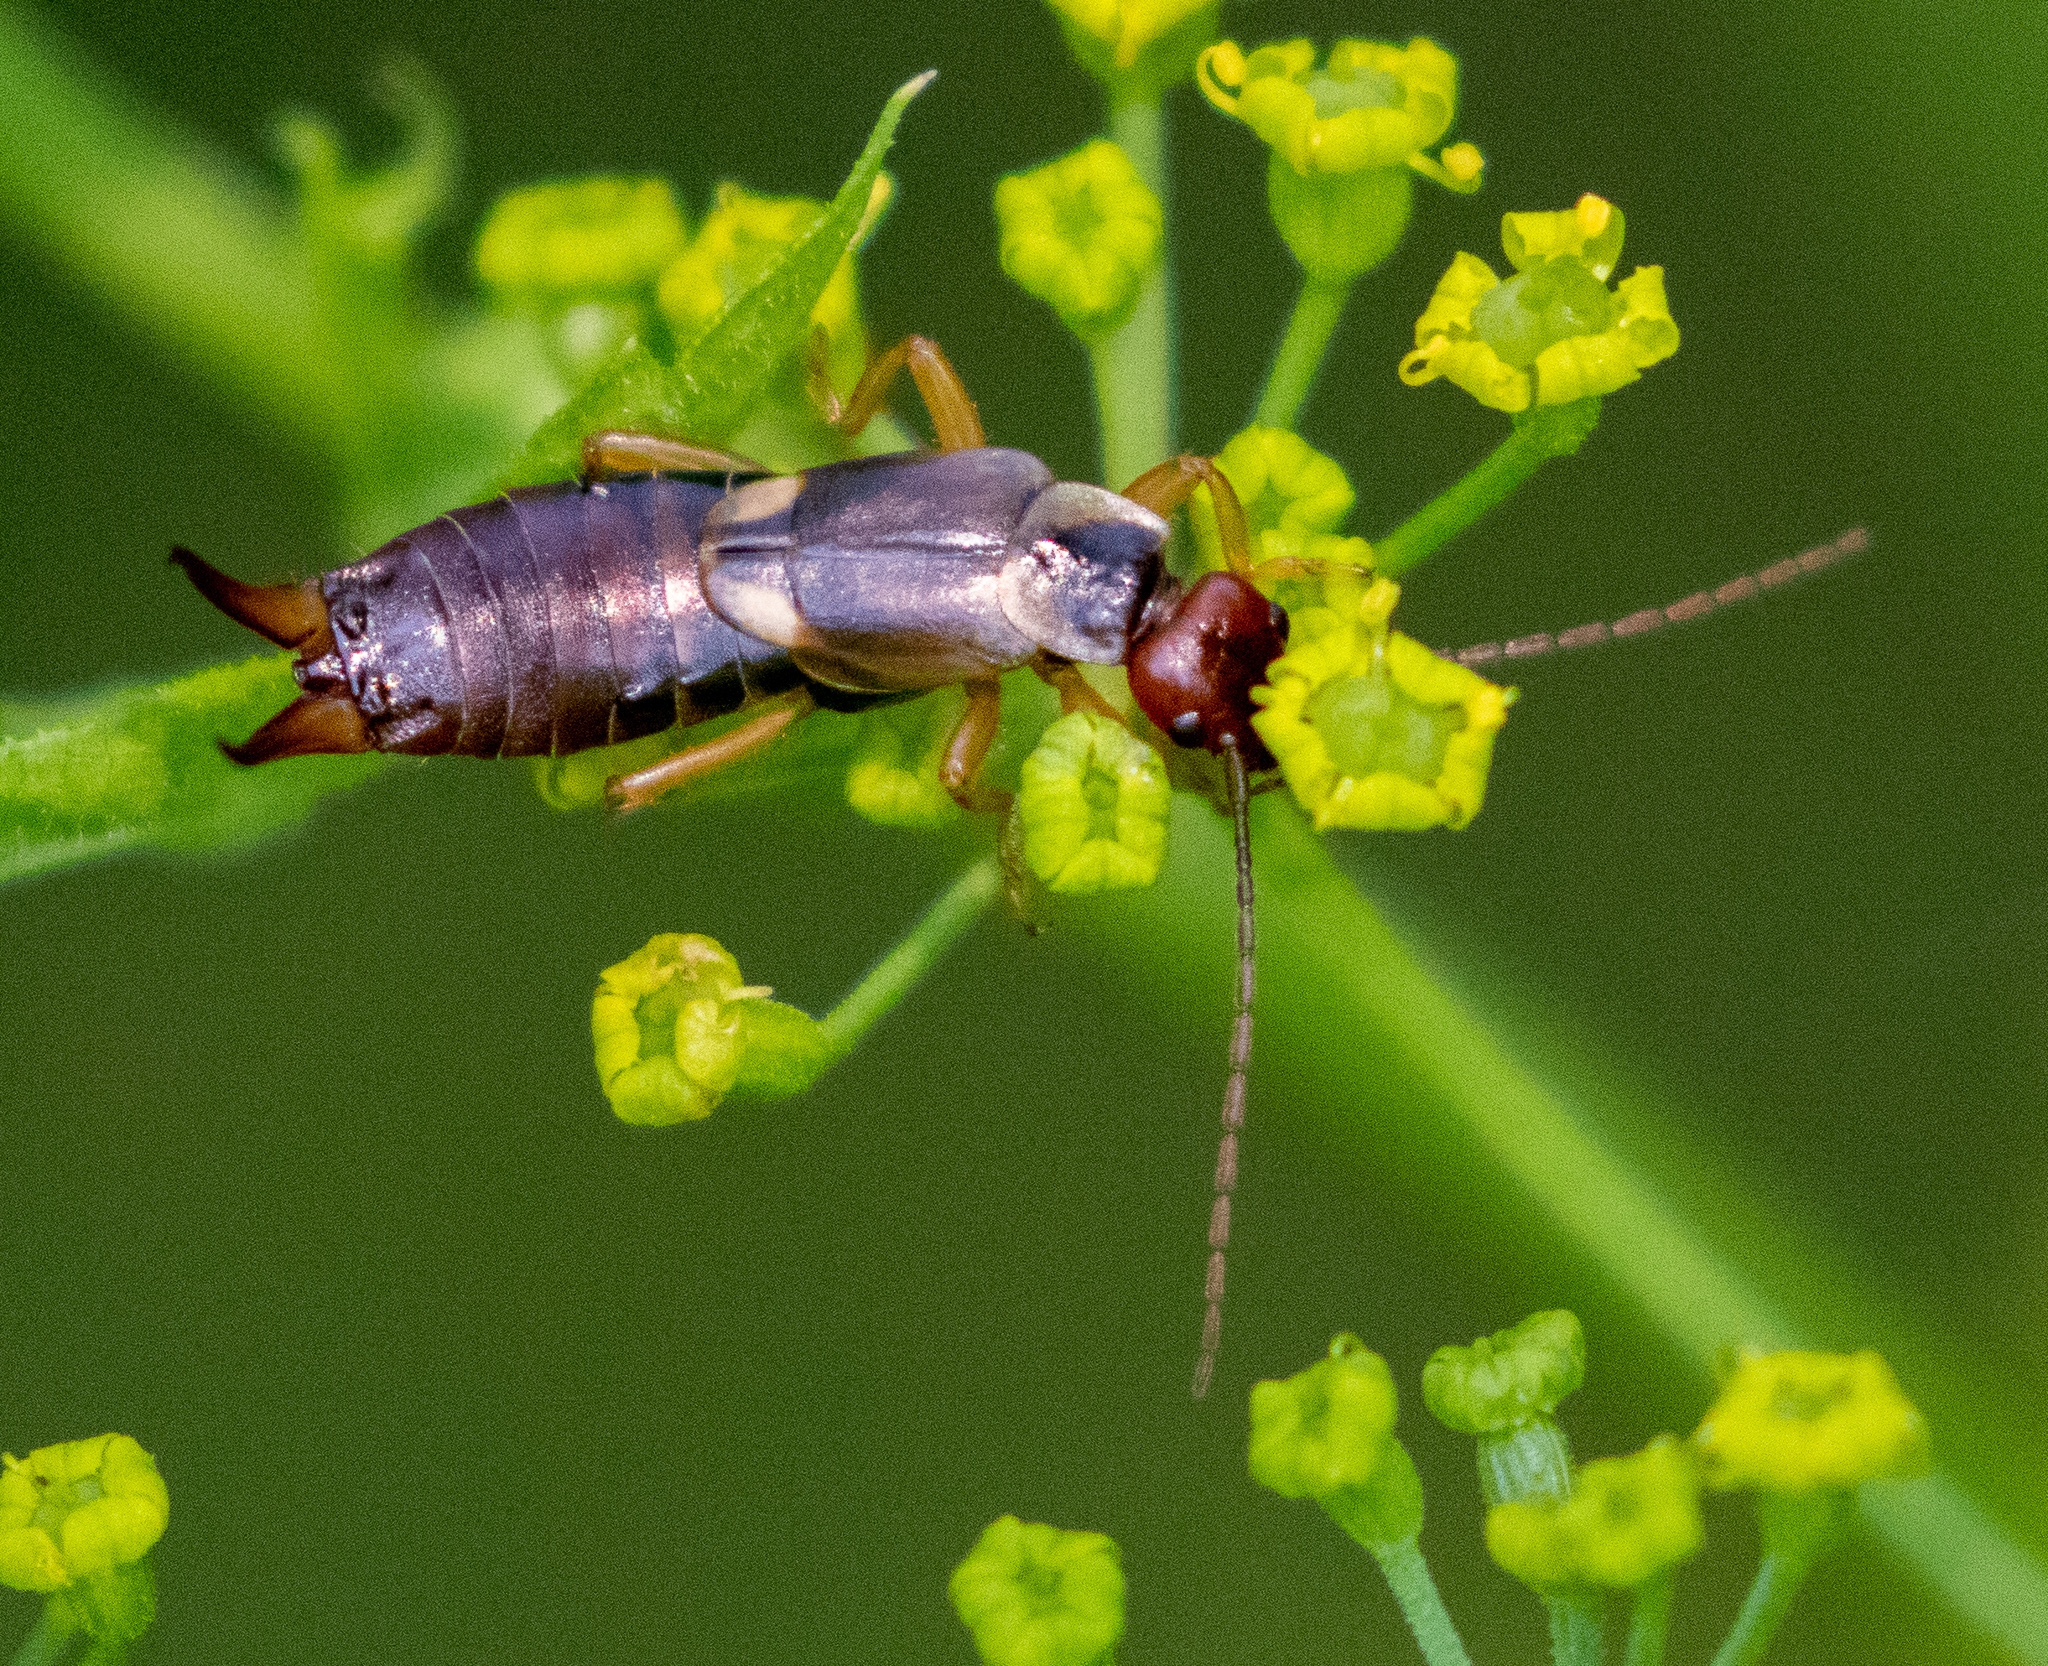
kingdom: Animalia
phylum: Arthropoda
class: Insecta
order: Dermaptera
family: Forficulidae
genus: Forficula
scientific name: Forficula
